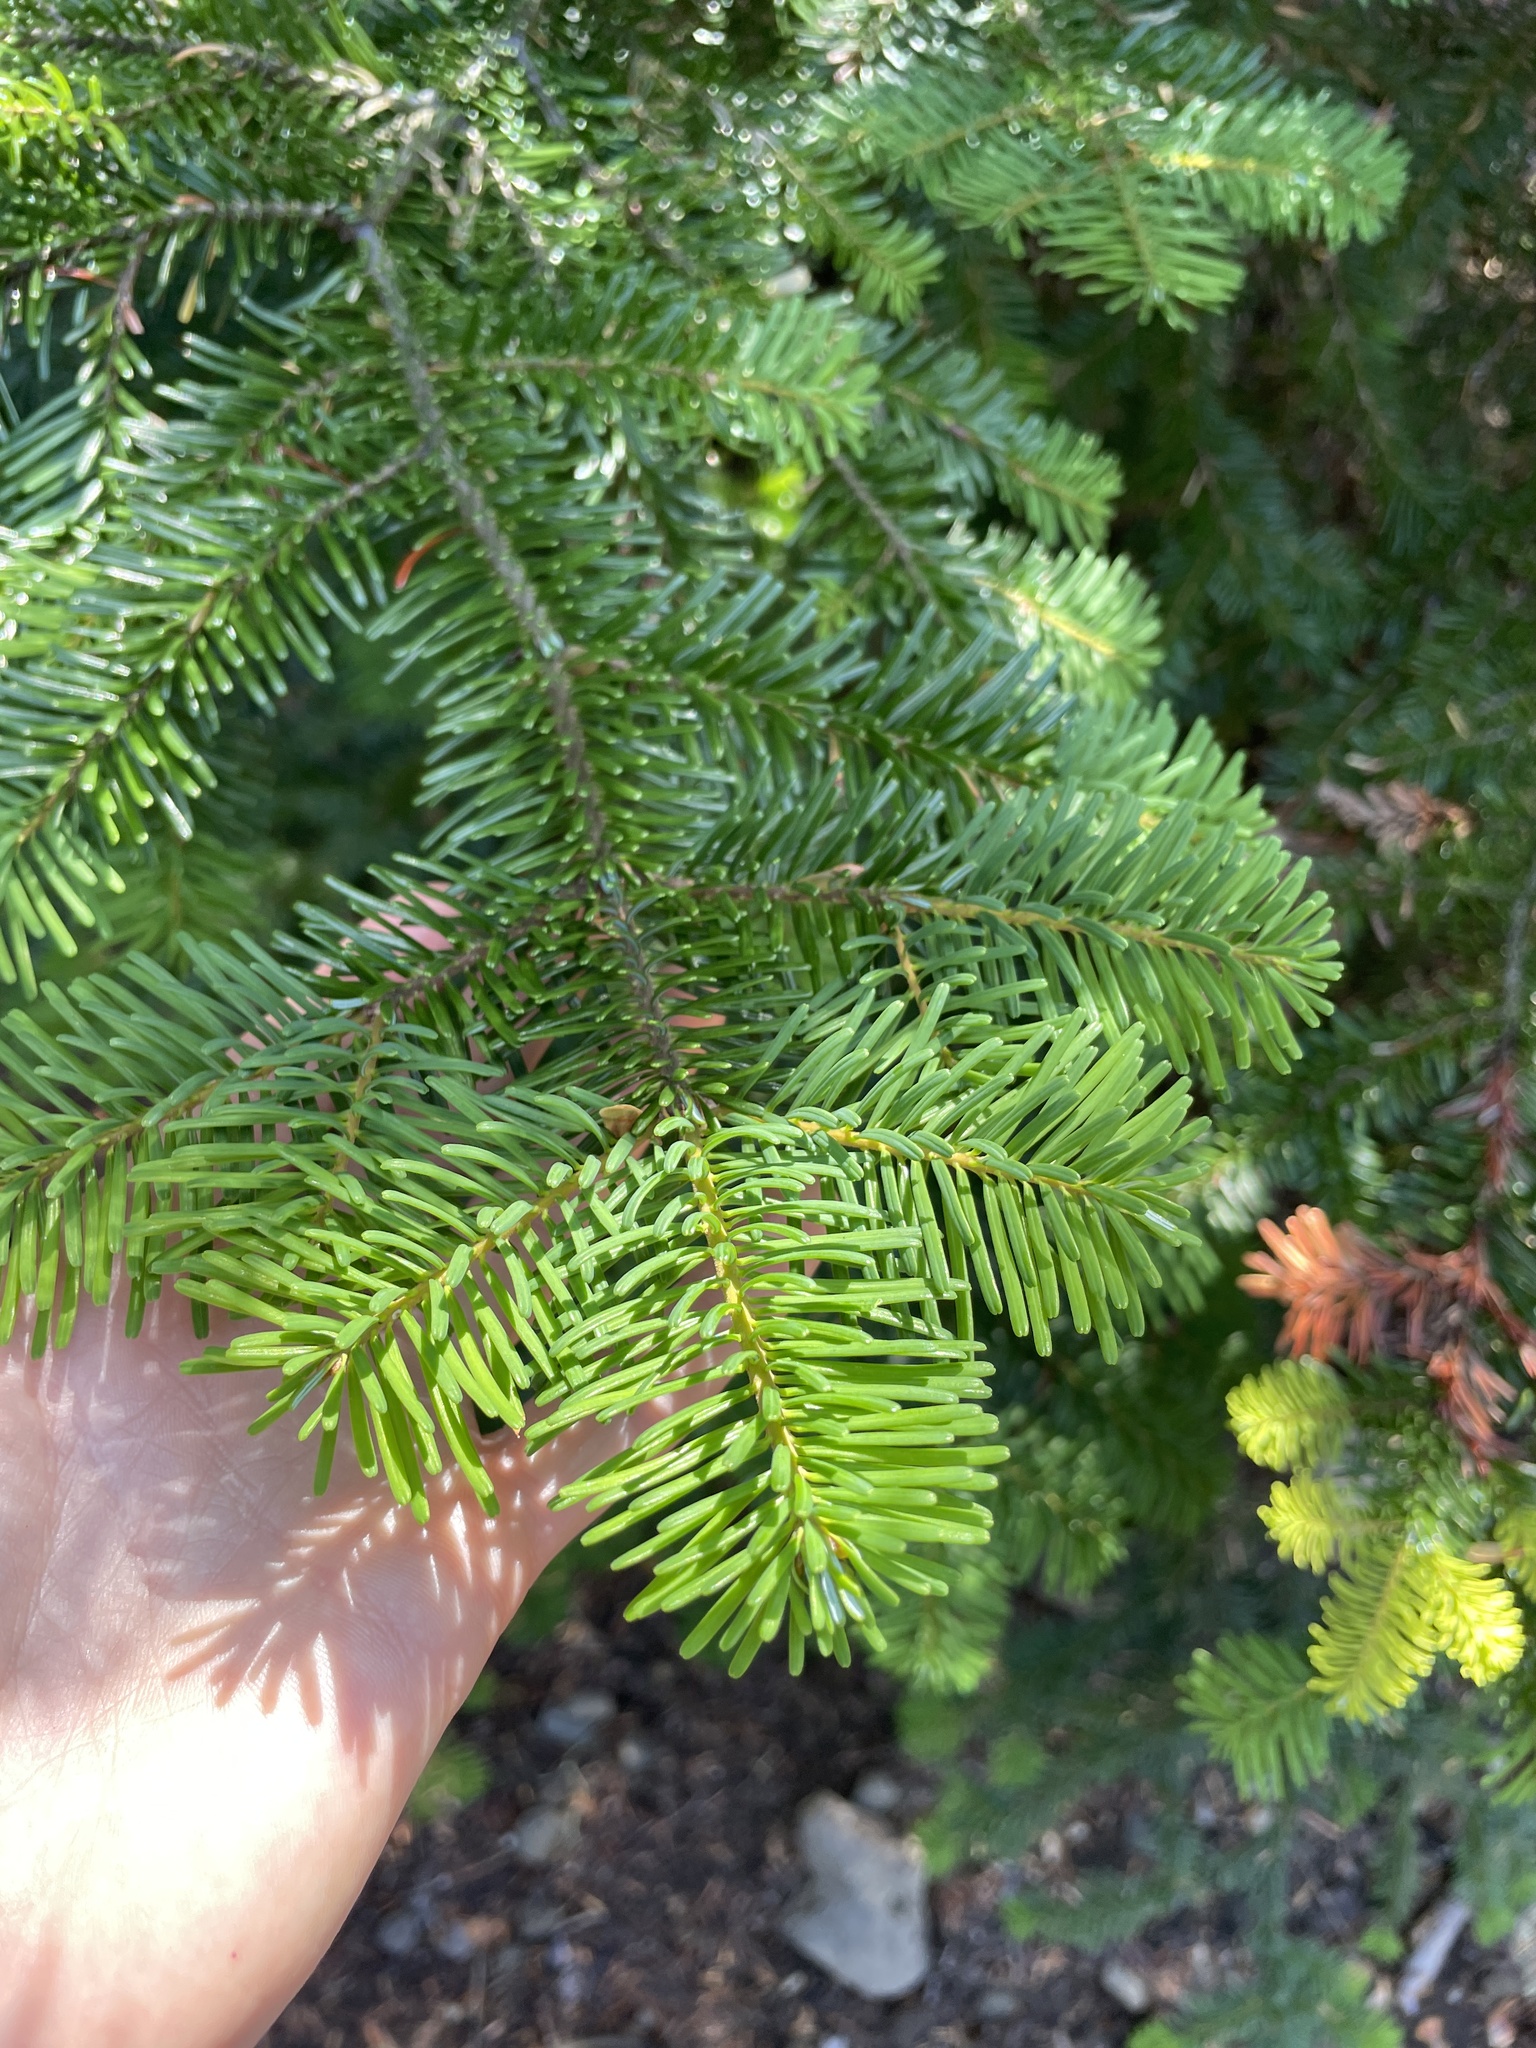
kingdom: Plantae
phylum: Tracheophyta
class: Pinopsida
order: Pinales
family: Pinaceae
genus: Abies
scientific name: Abies amabilis
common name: Pacific silver fir
